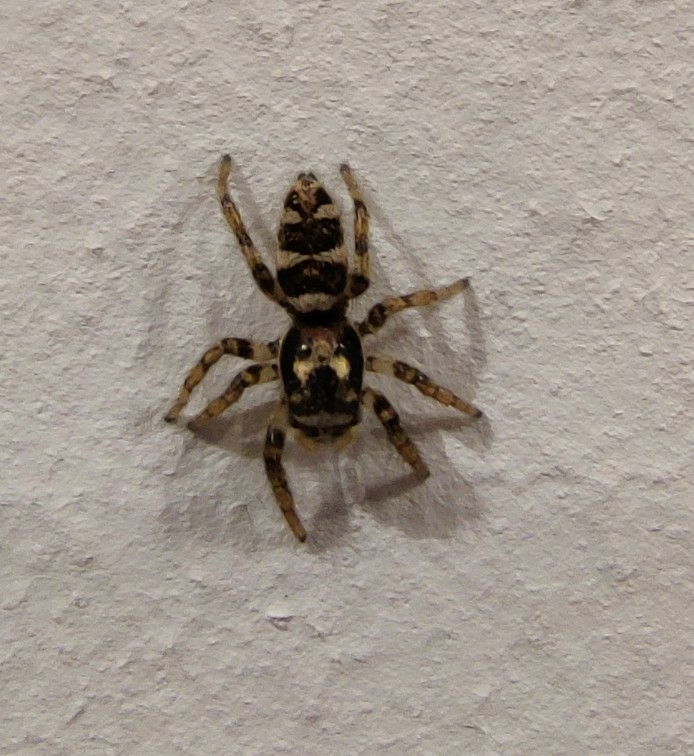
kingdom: Animalia
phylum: Arthropoda
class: Arachnida
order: Araneae
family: Salticidae
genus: Salticus
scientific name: Salticus scenicus
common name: Zebra jumper
